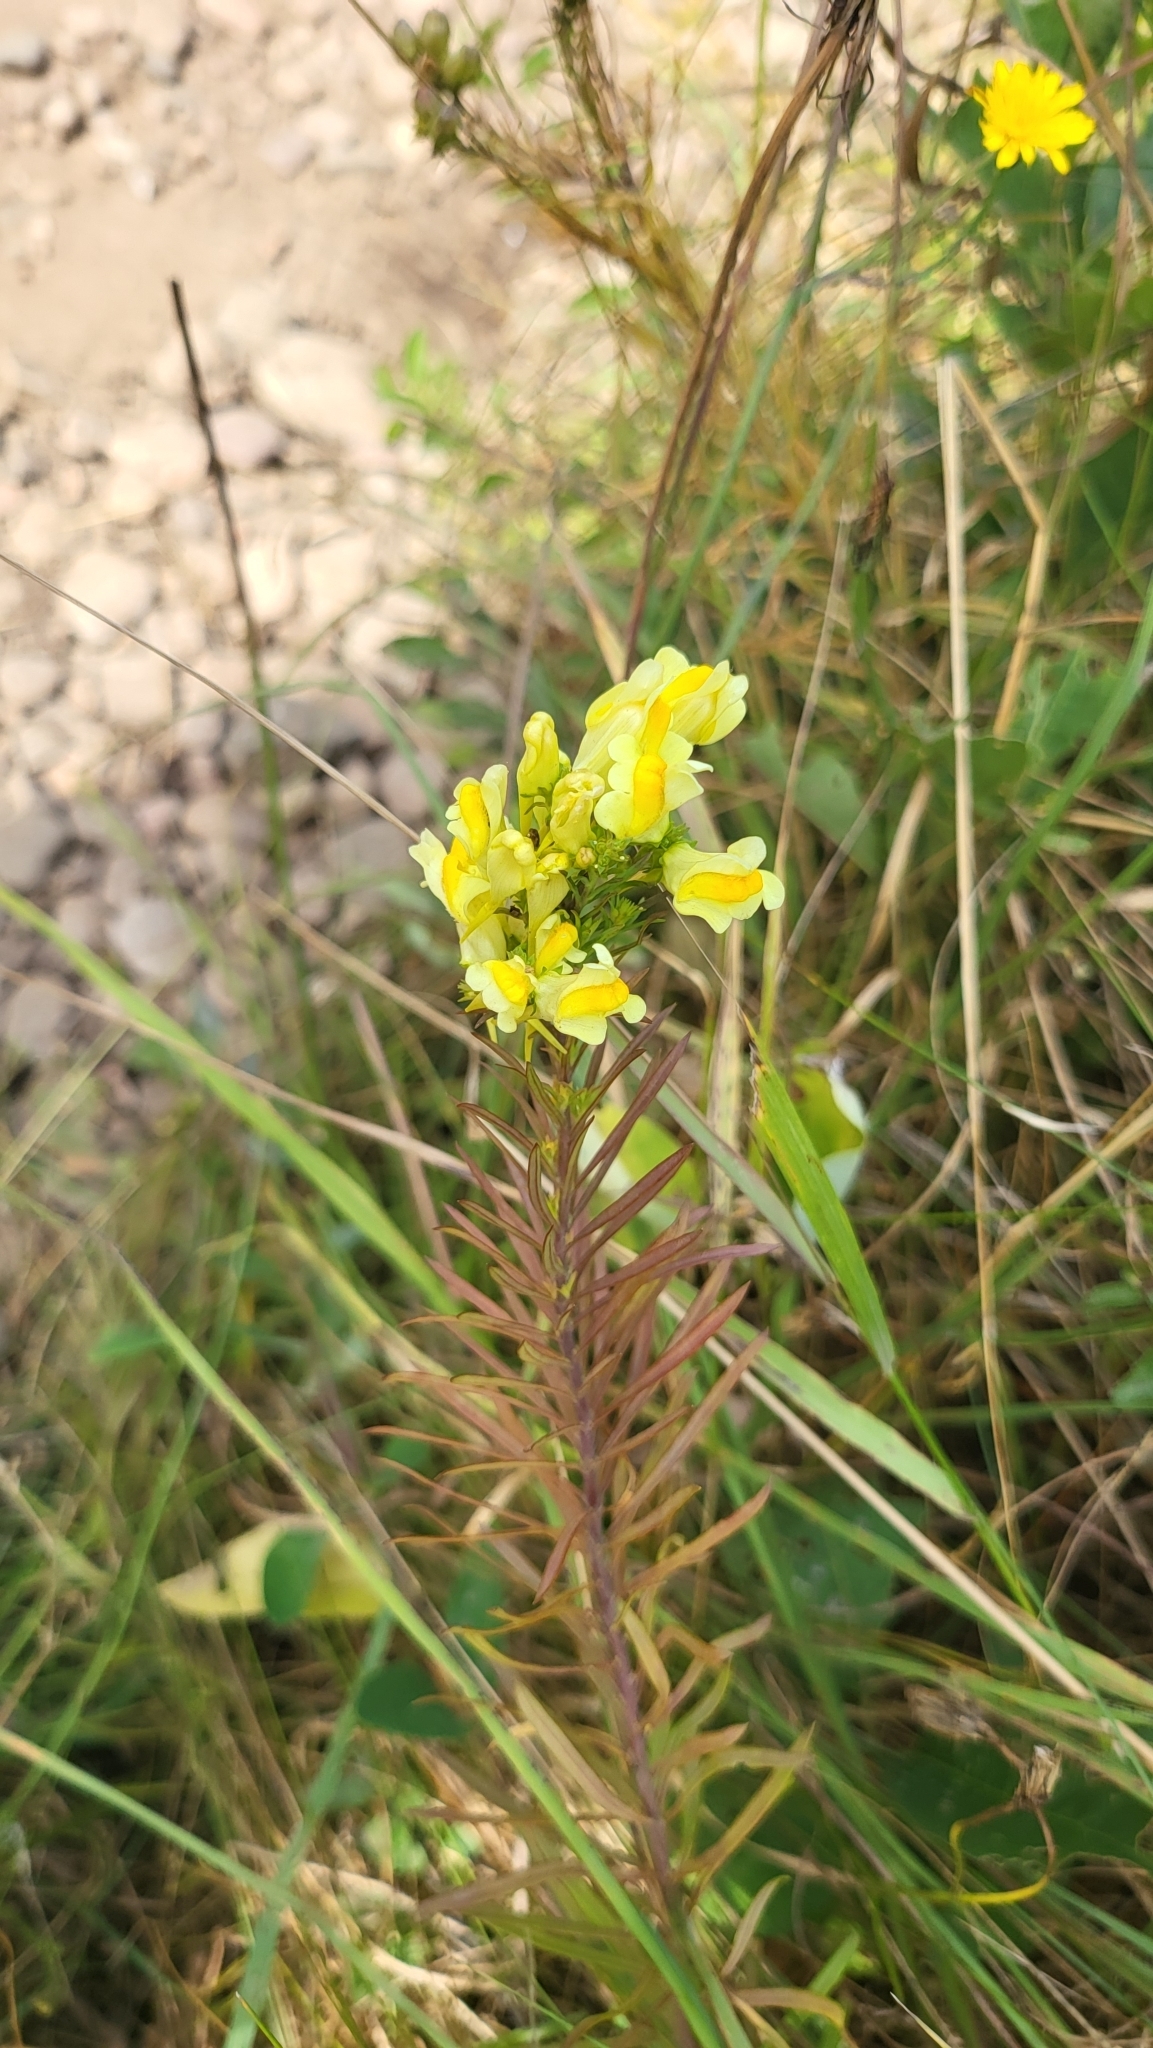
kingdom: Plantae
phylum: Tracheophyta
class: Magnoliopsida
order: Lamiales
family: Plantaginaceae
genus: Linaria
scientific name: Linaria vulgaris
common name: Butter and eggs
